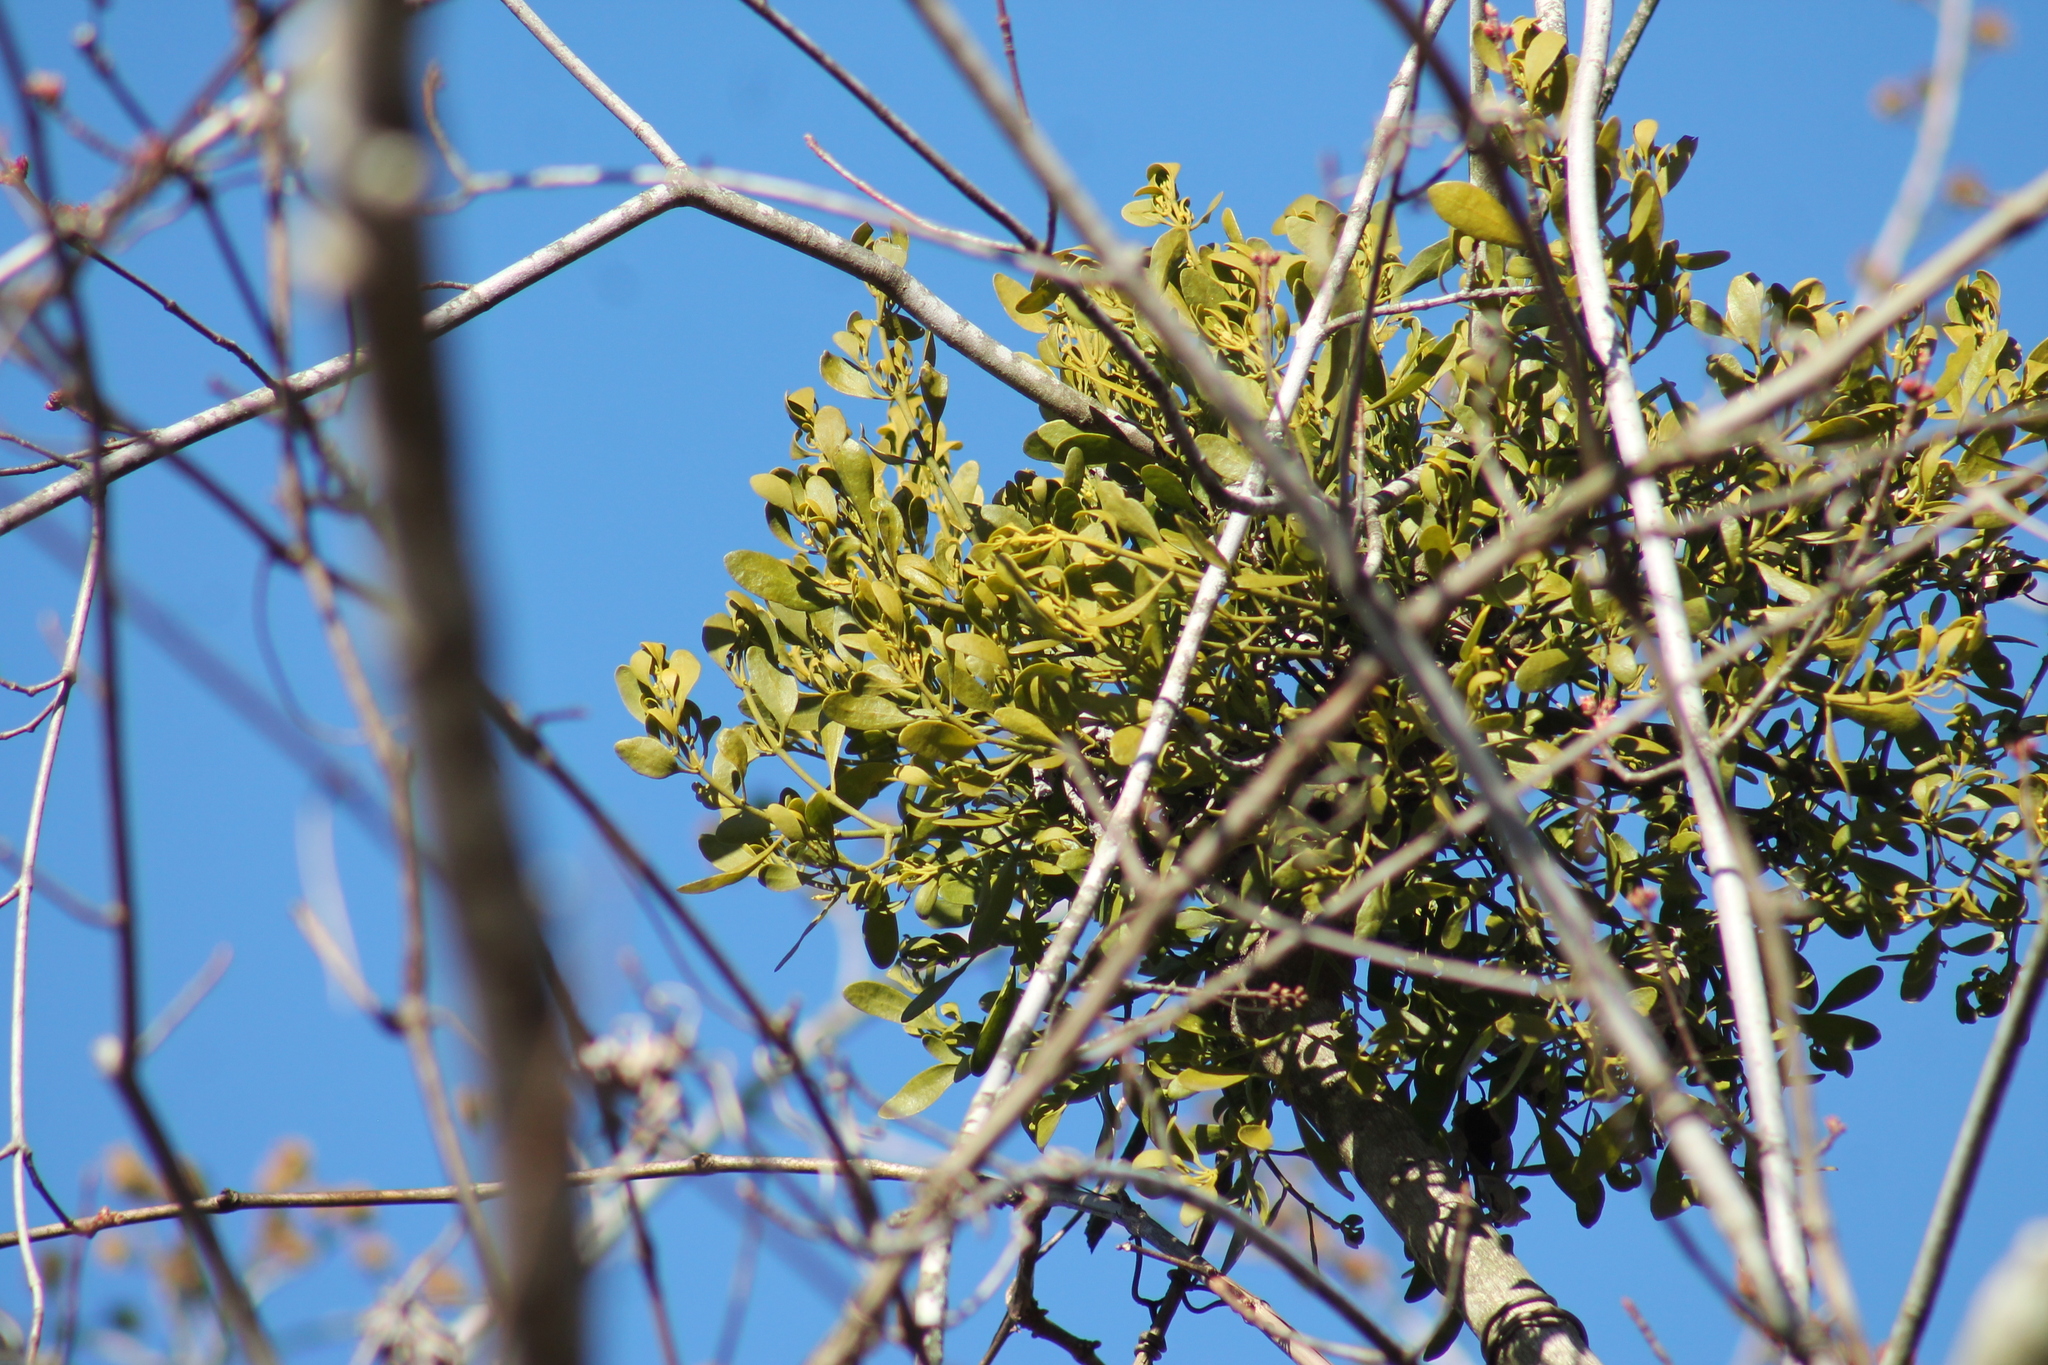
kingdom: Plantae
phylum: Tracheophyta
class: Magnoliopsida
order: Santalales
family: Viscaceae
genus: Phoradendron
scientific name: Phoradendron leucarpum
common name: Pacific mistletoe
